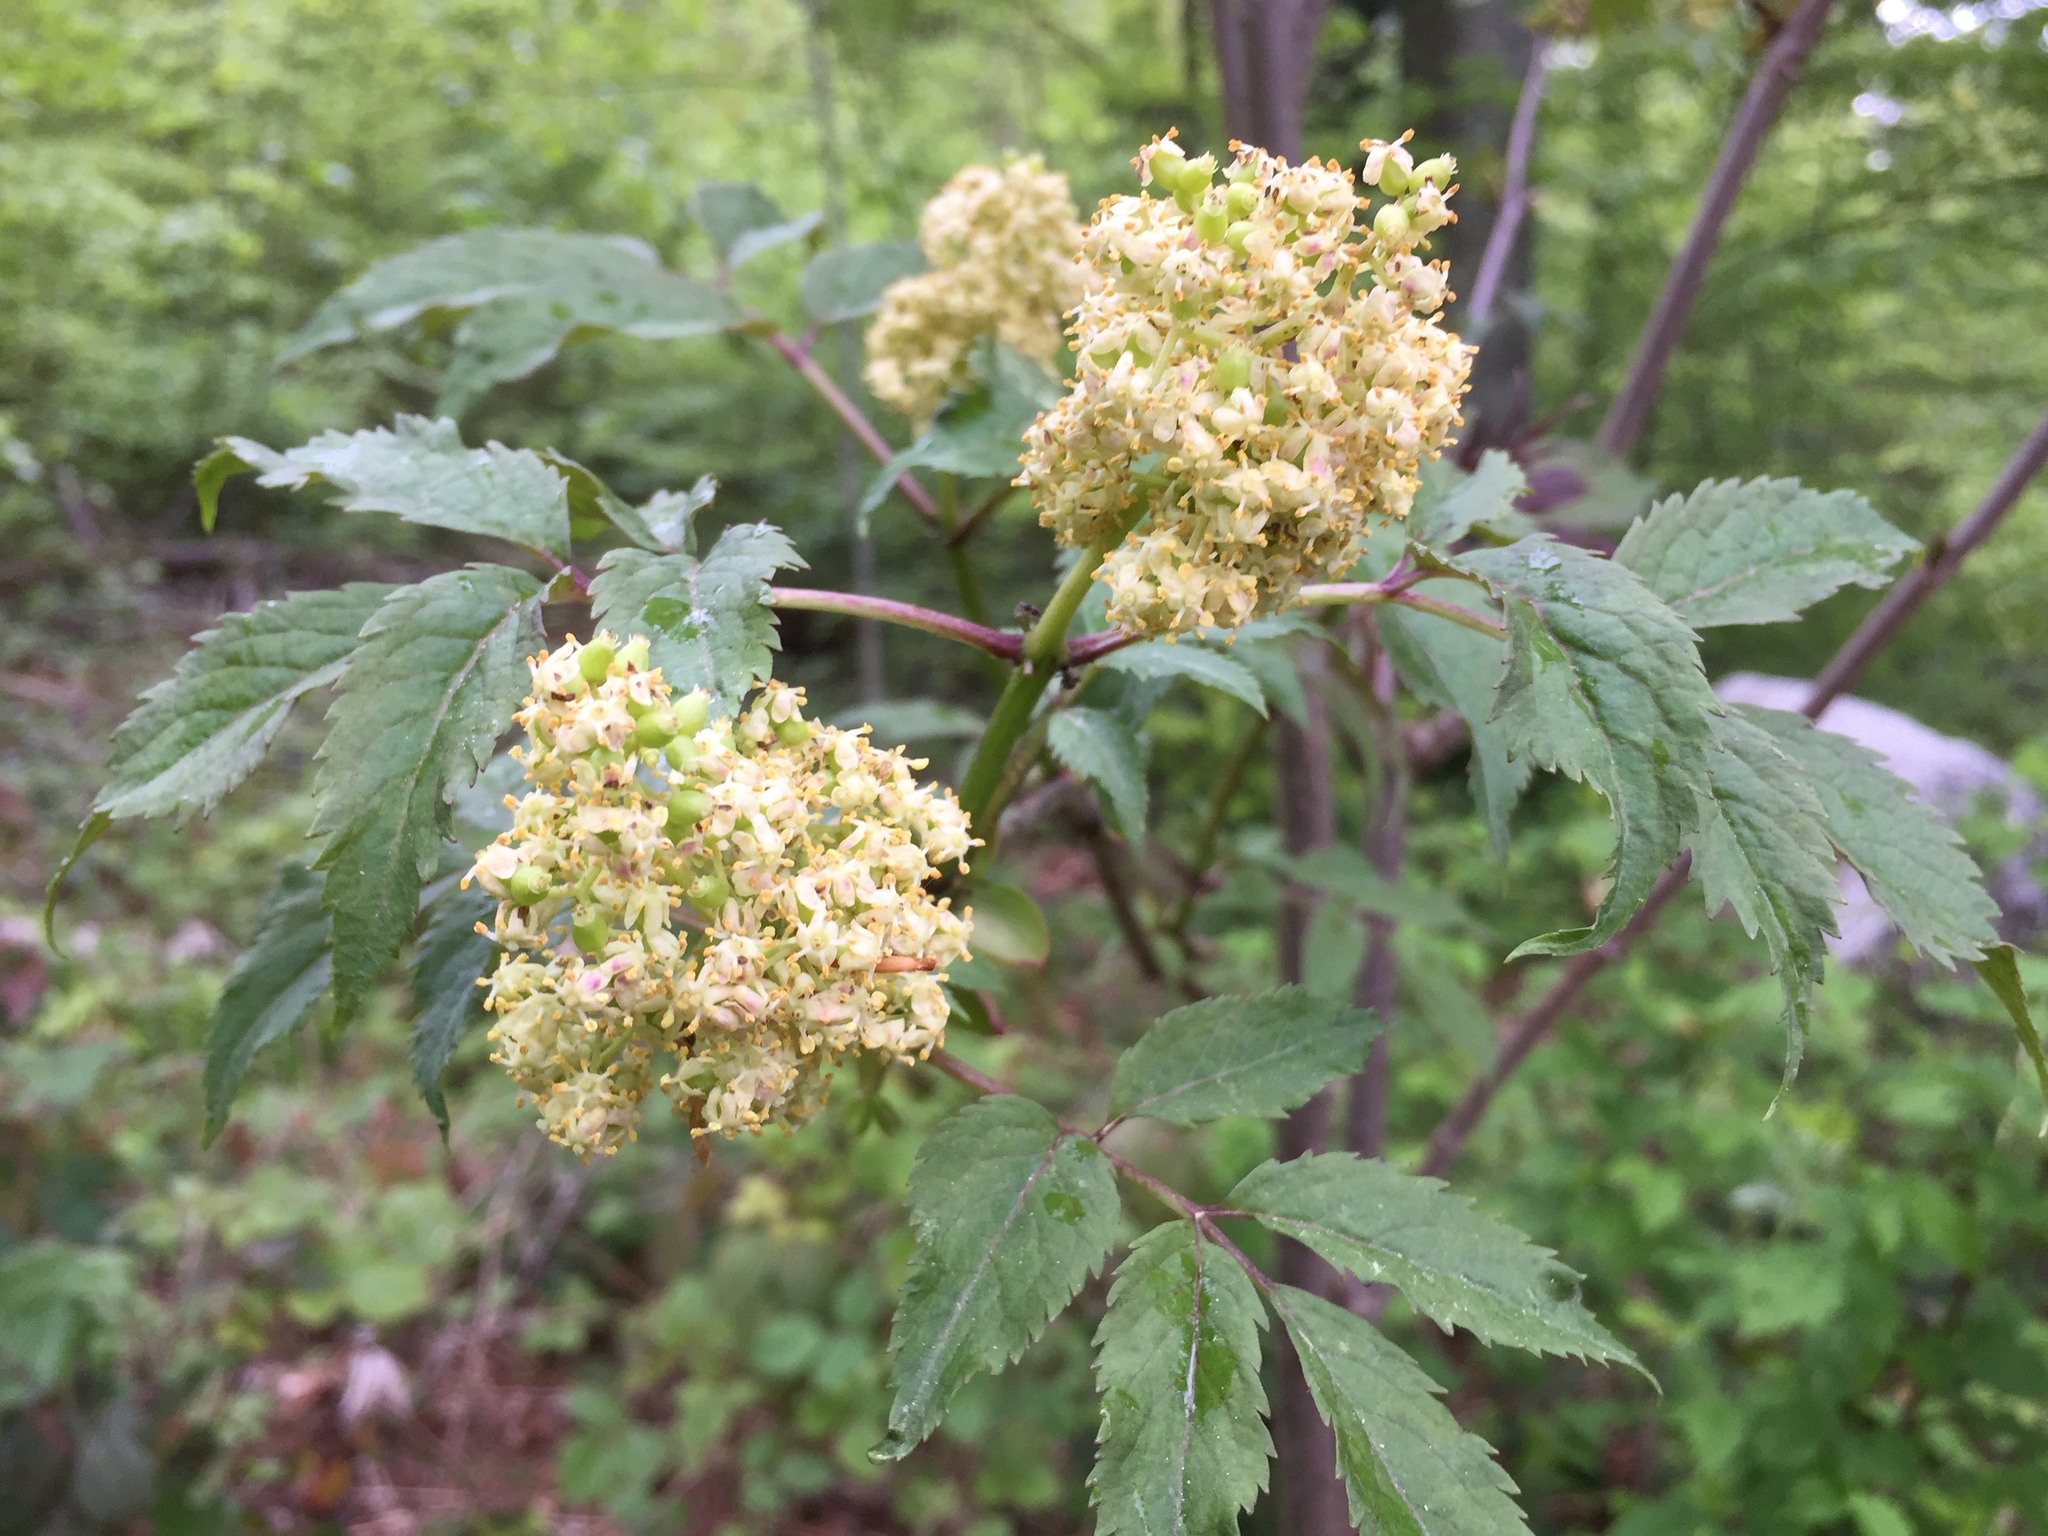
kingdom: Plantae
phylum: Tracheophyta
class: Magnoliopsida
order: Dipsacales
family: Viburnaceae
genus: Sambucus
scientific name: Sambucus racemosa
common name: Red-berried elder
